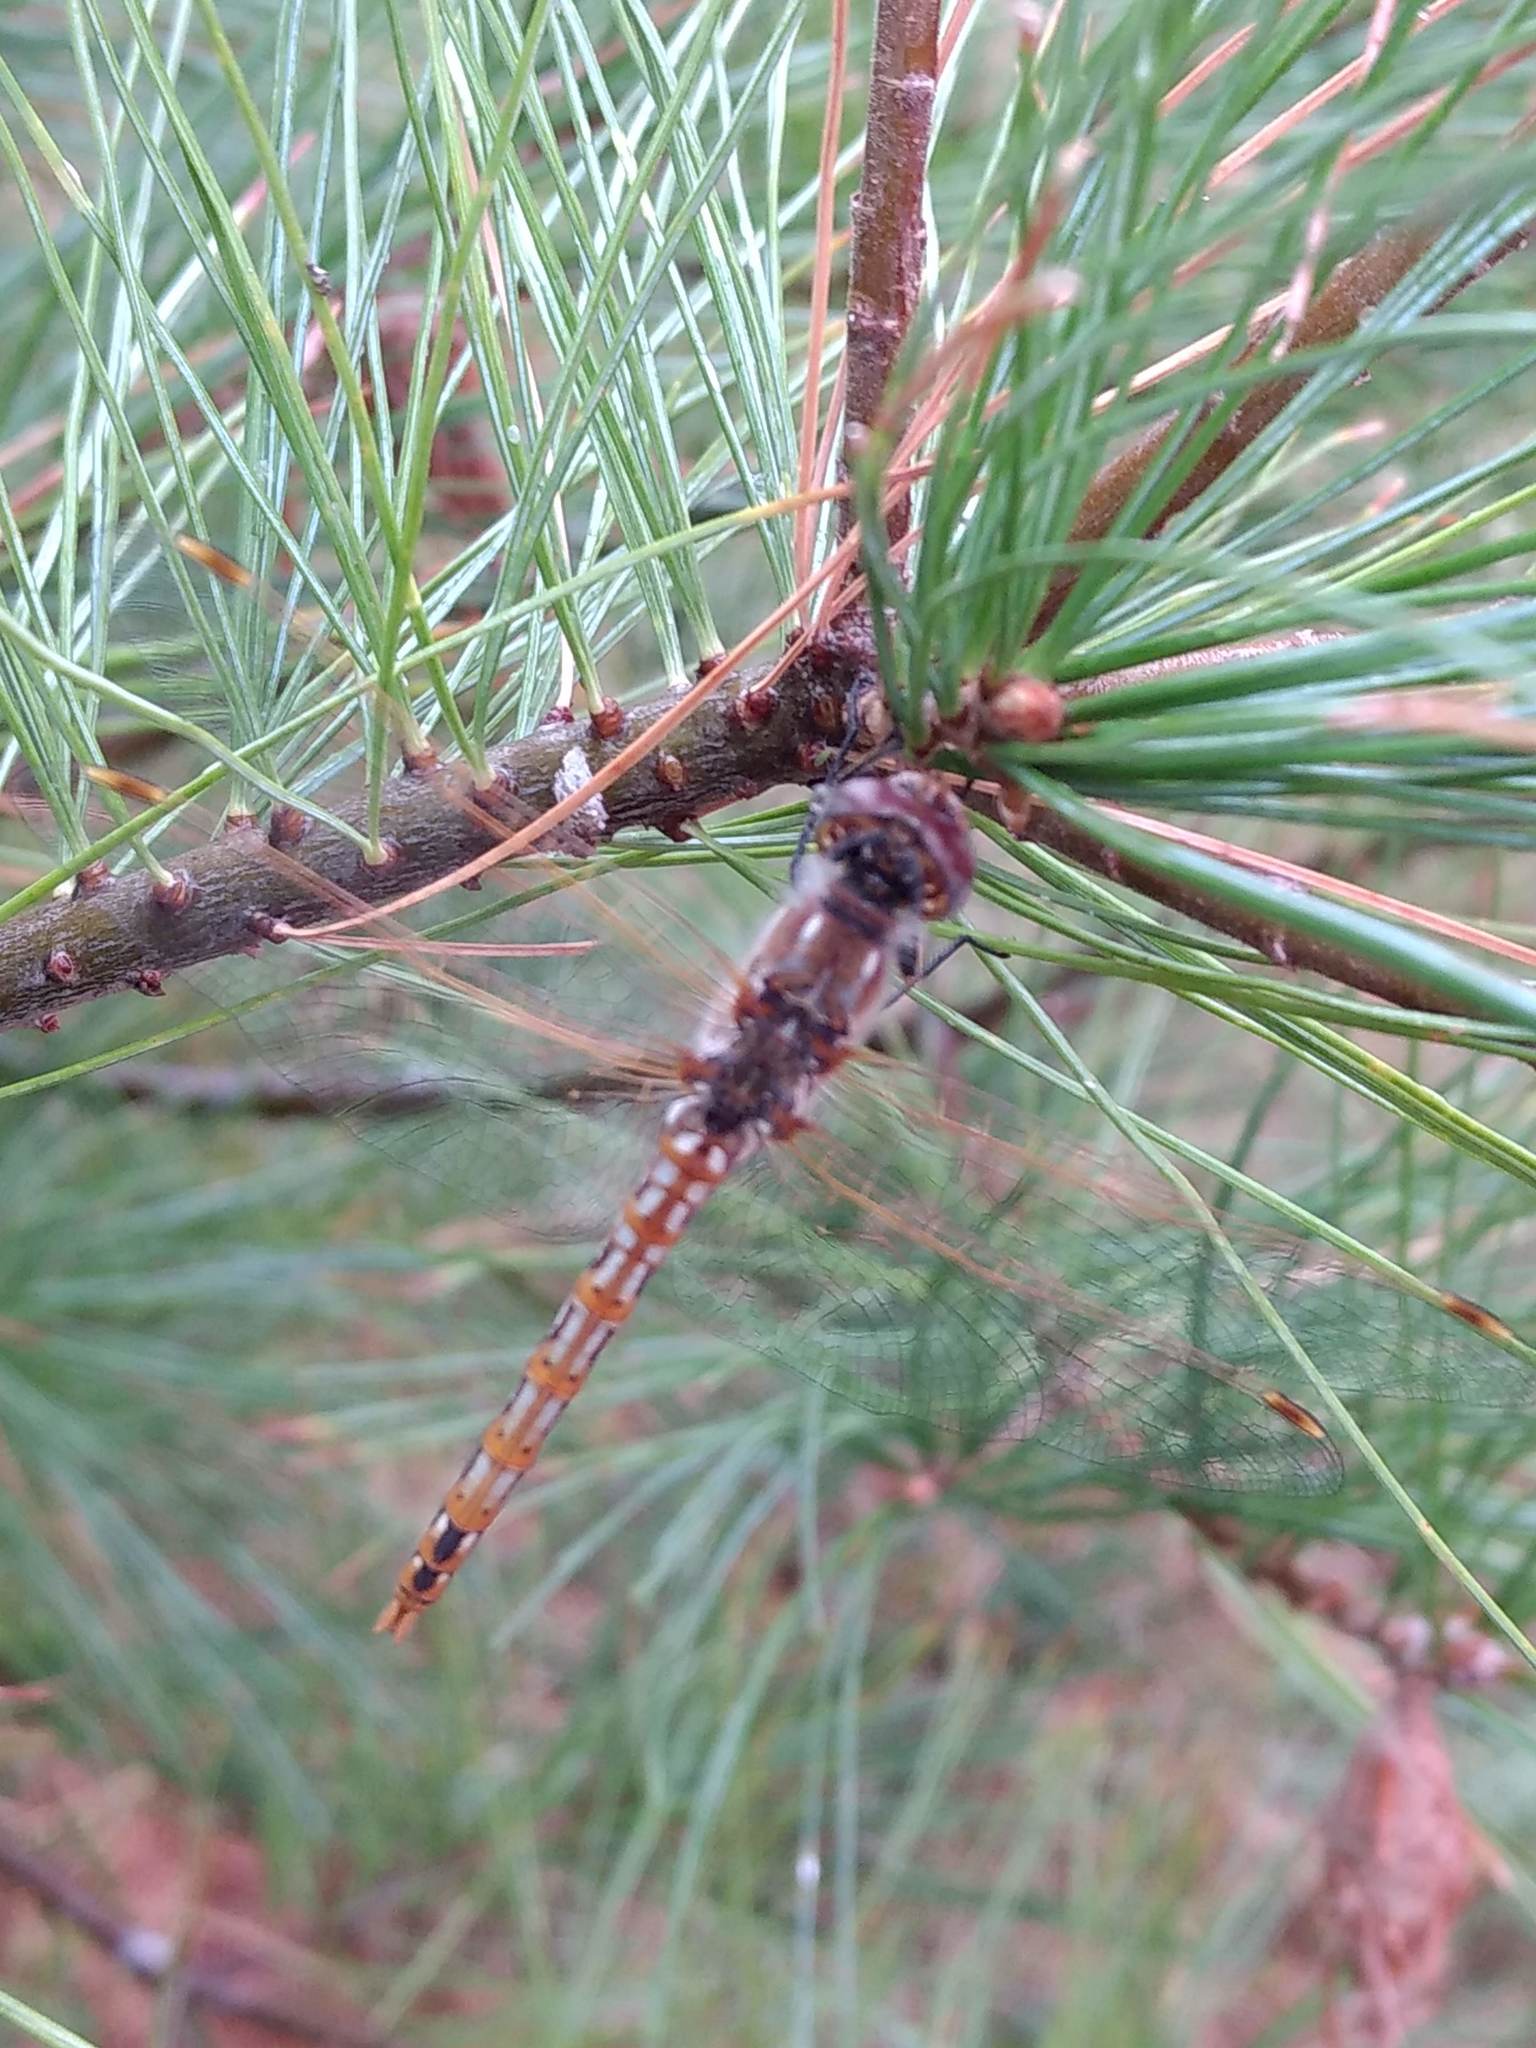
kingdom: Animalia
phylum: Arthropoda
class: Insecta
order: Odonata
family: Libellulidae
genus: Sympetrum
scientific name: Sympetrum corruptum
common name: Variegated meadowhawk
